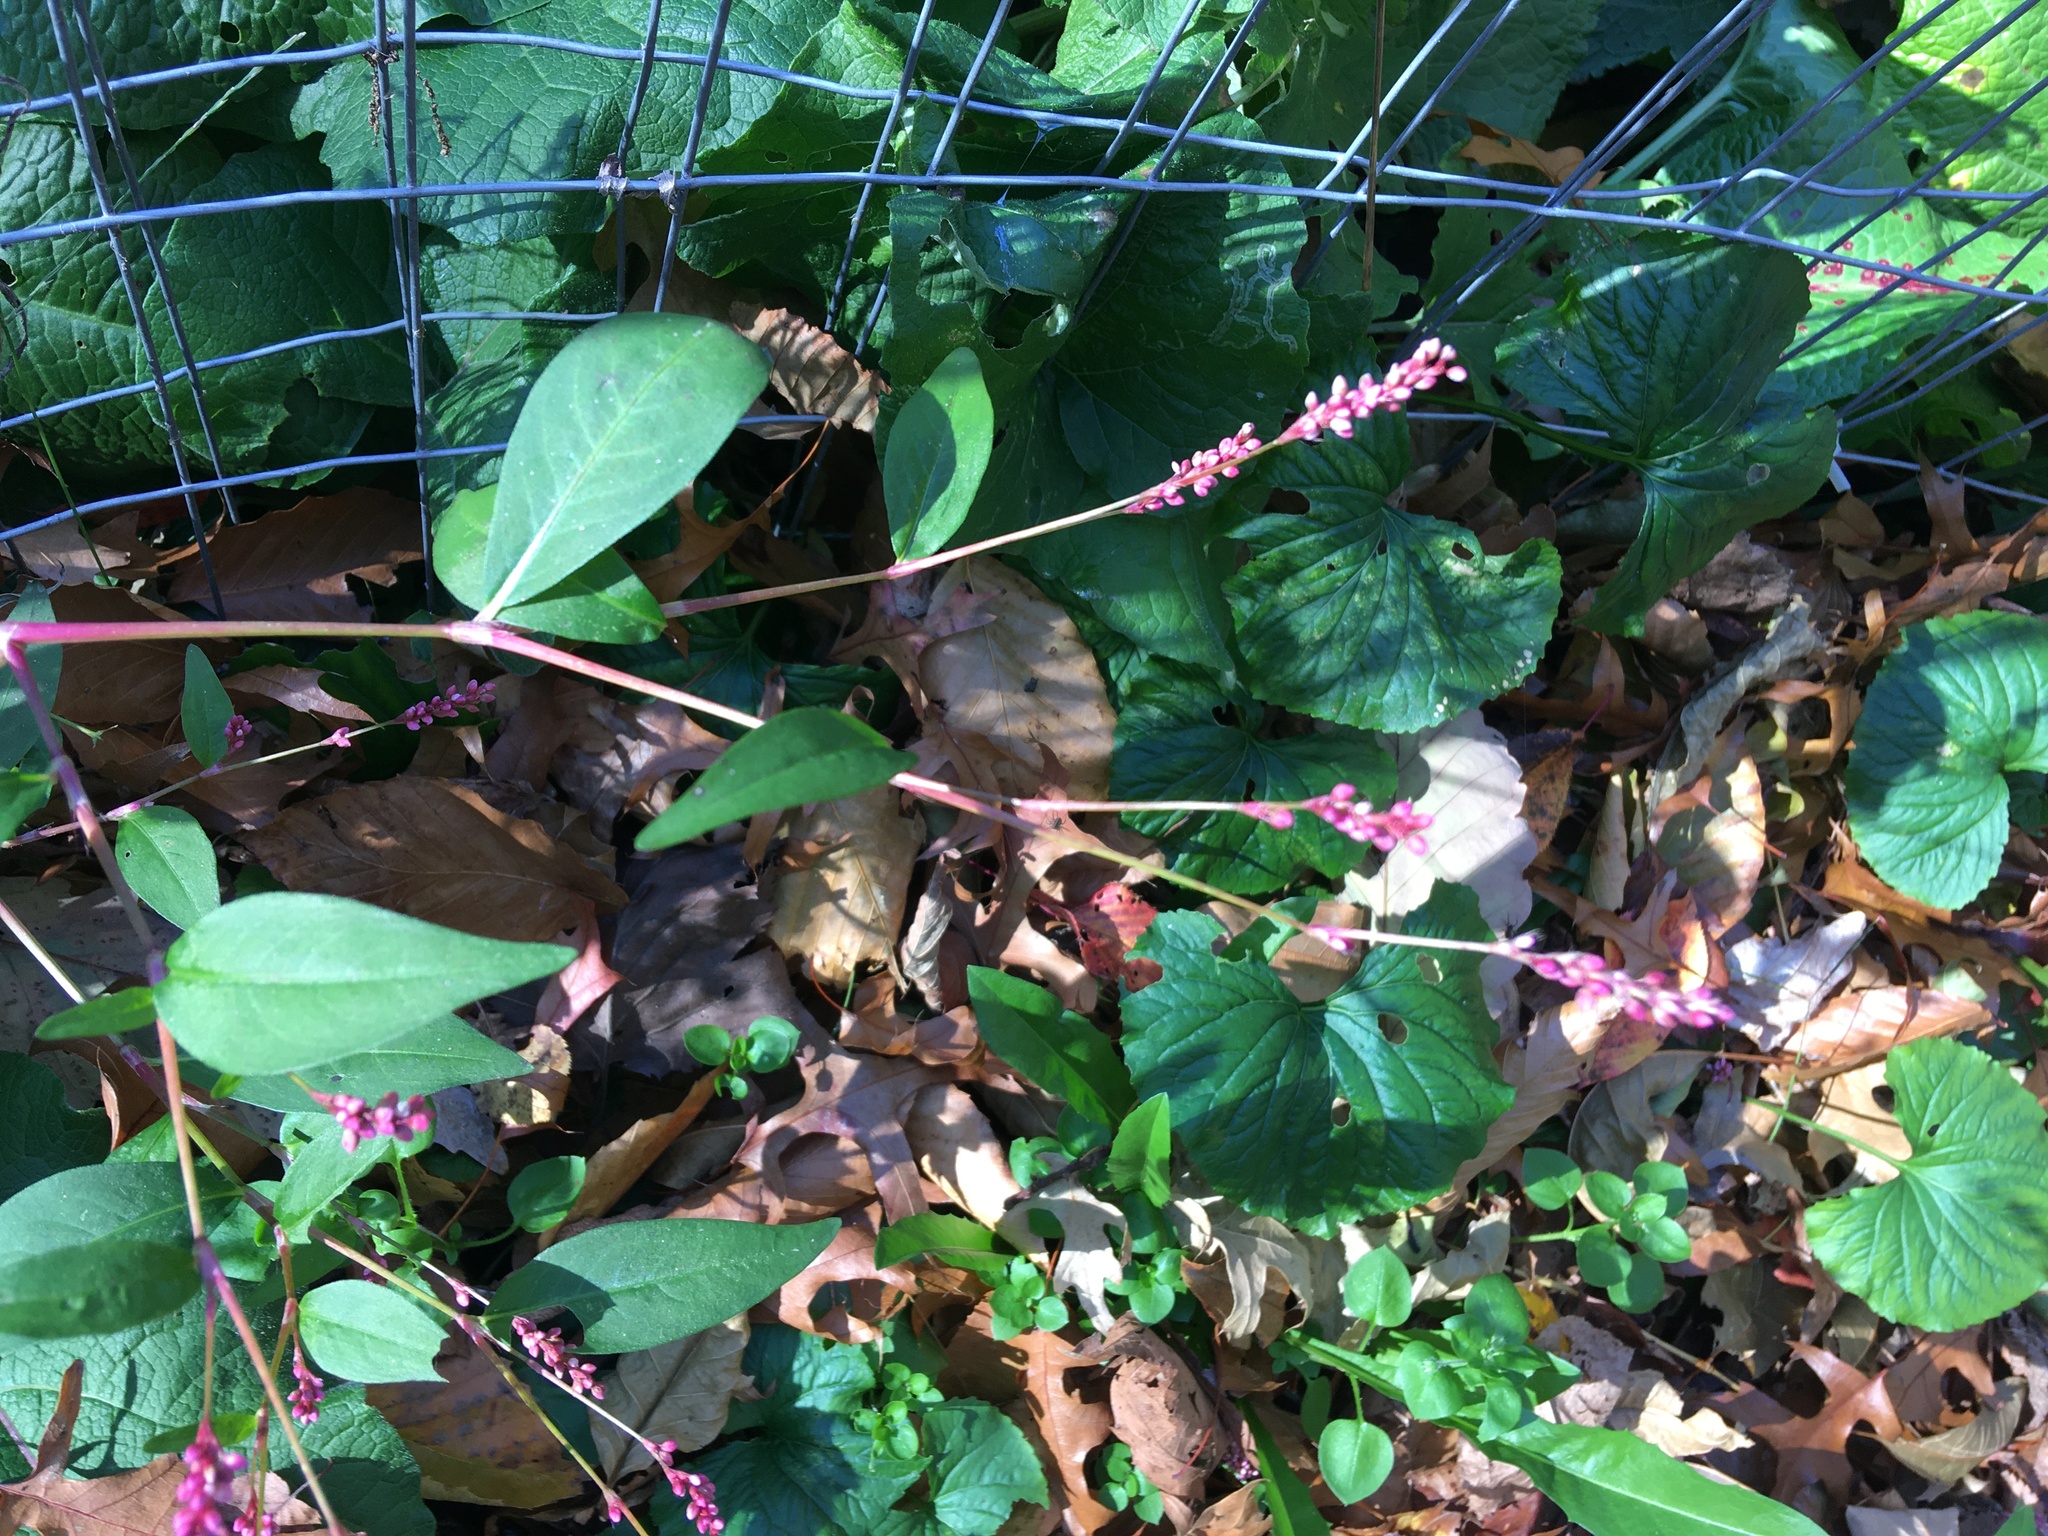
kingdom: Plantae
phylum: Tracheophyta
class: Magnoliopsida
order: Caryophyllales
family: Polygonaceae
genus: Persicaria
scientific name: Persicaria longiseta
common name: Bristly lady's-thumb
